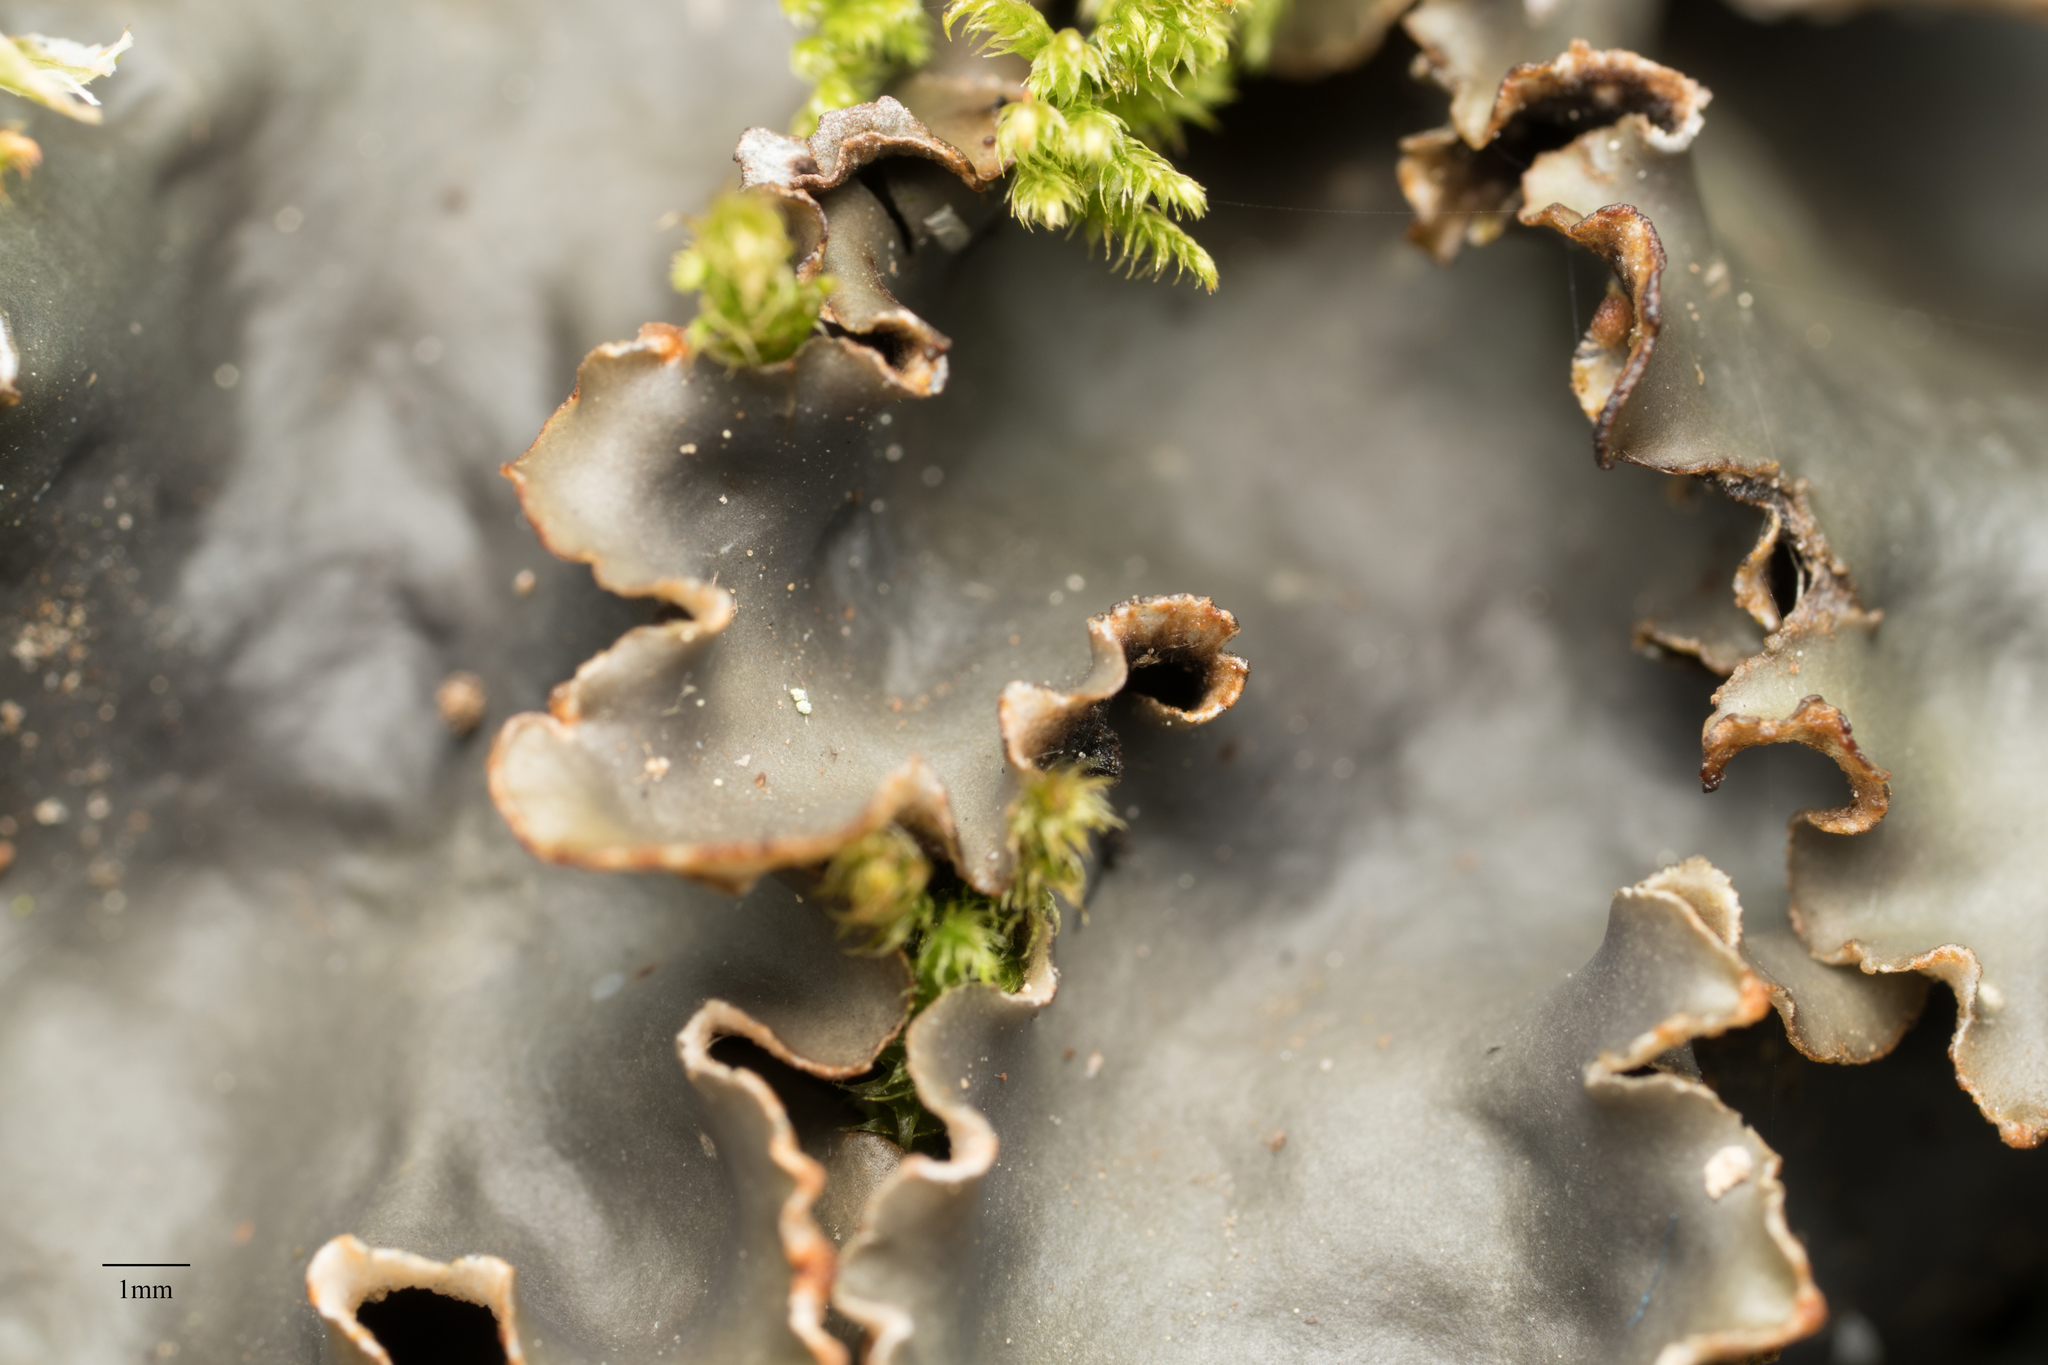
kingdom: Fungi
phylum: Ascomycota
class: Lecanoromycetes
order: Peltigerales
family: Peltigeraceae
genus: Peltigera
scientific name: Peltigera
